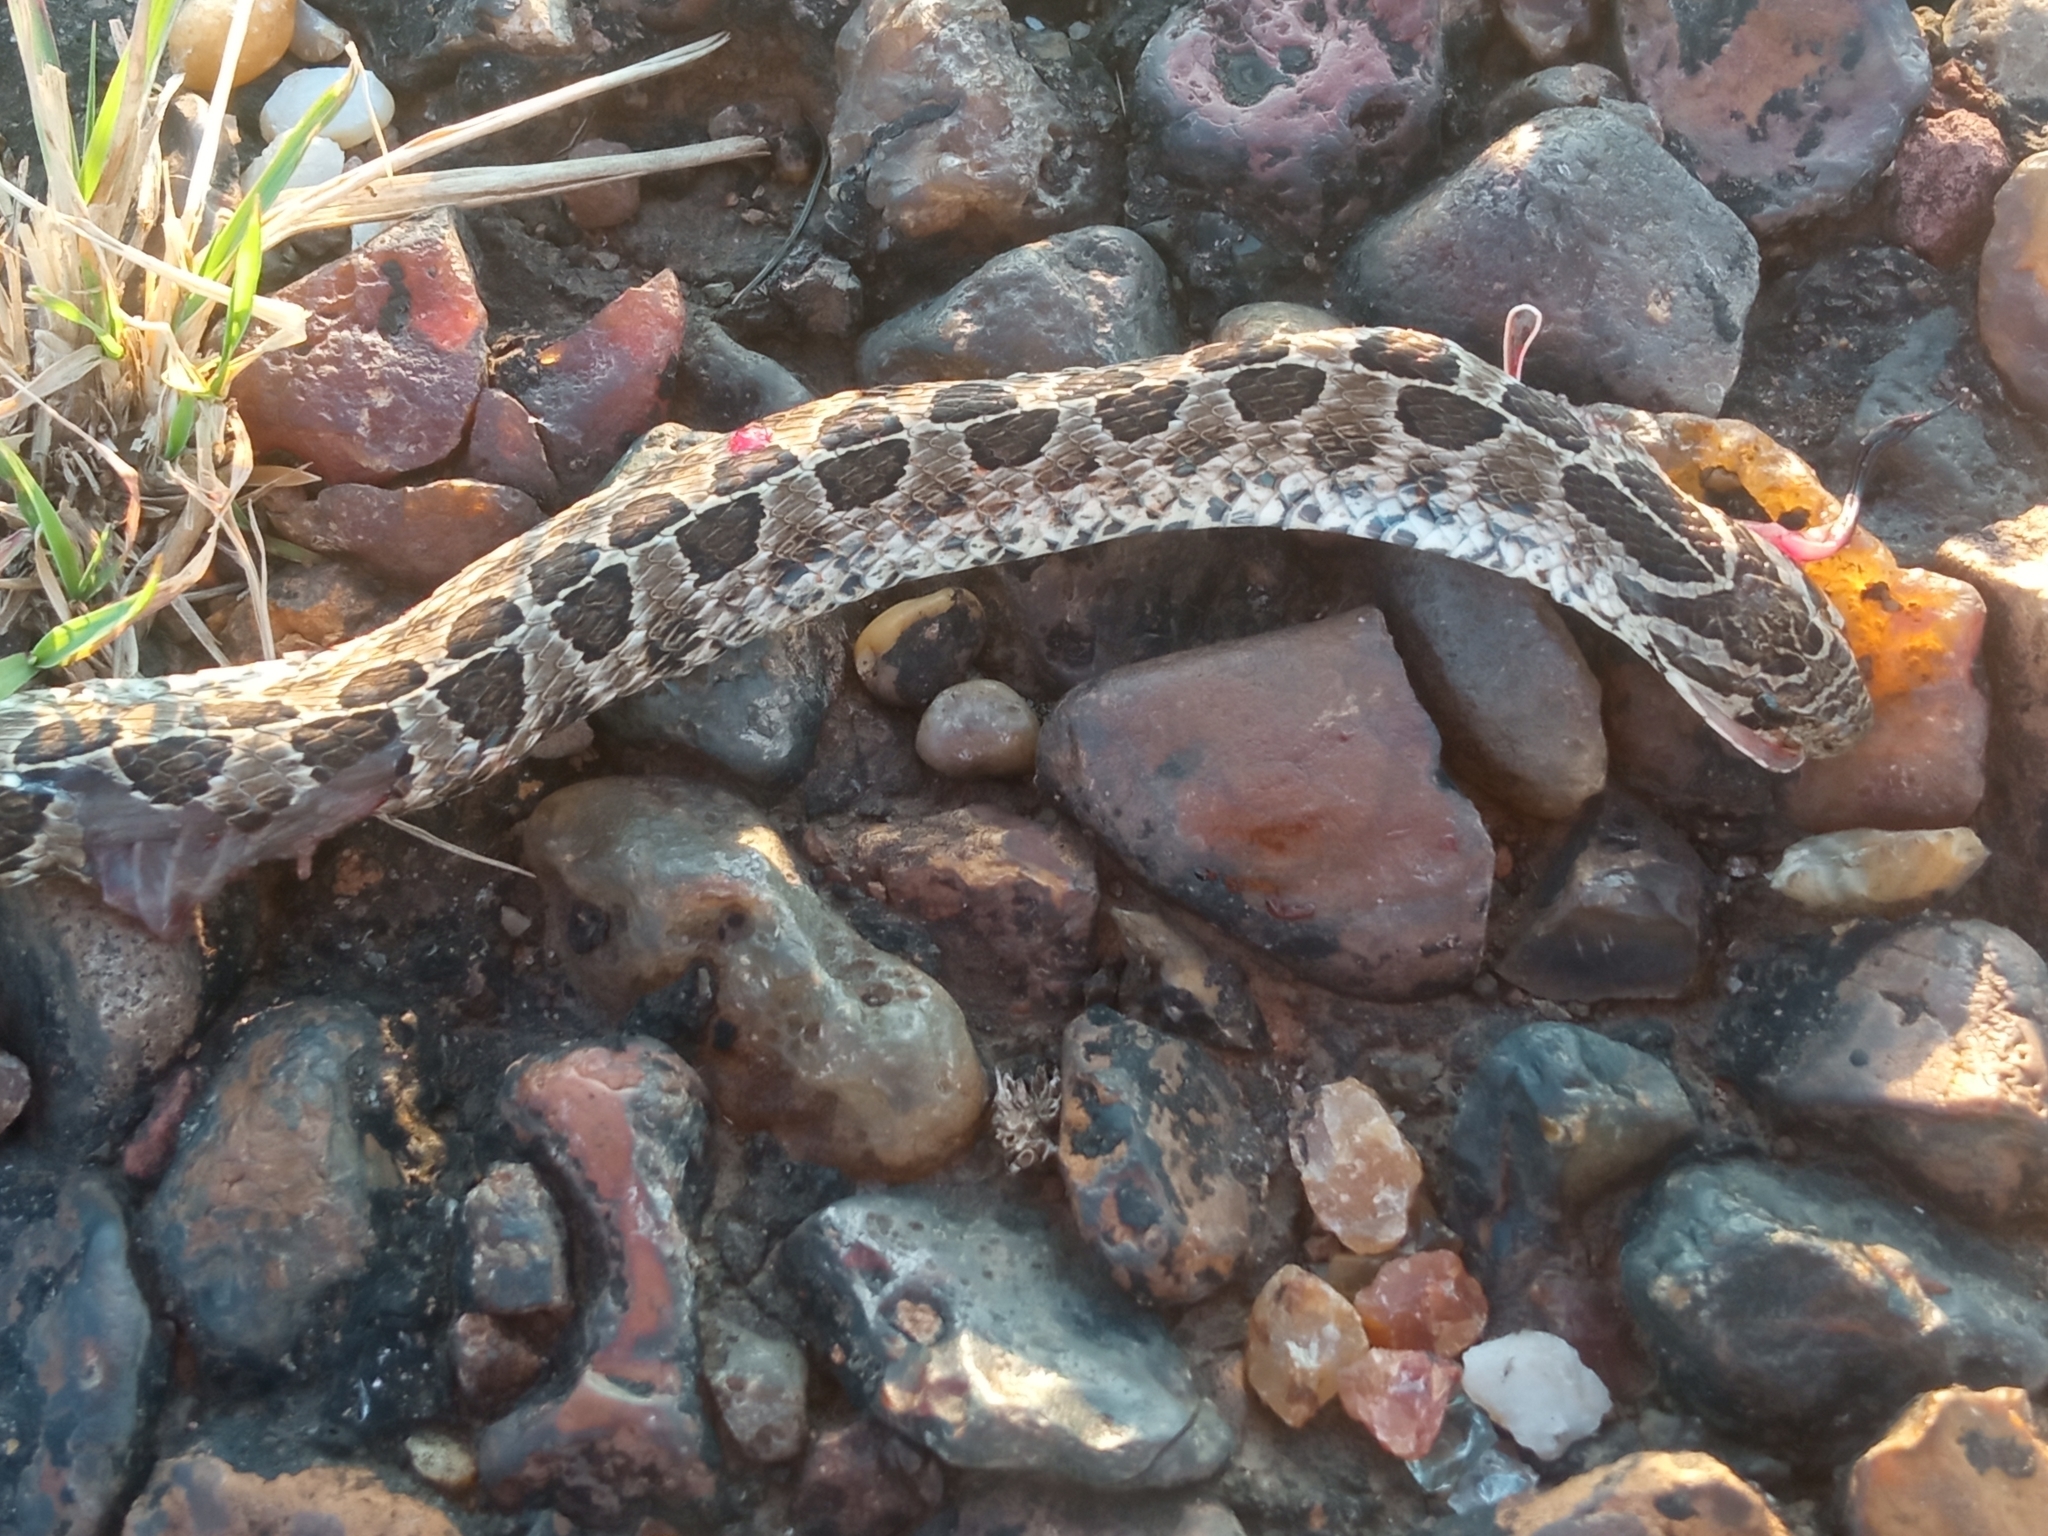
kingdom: Animalia
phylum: Chordata
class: Squamata
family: Colubridae
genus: Tachymenis
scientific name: Tachymenis
